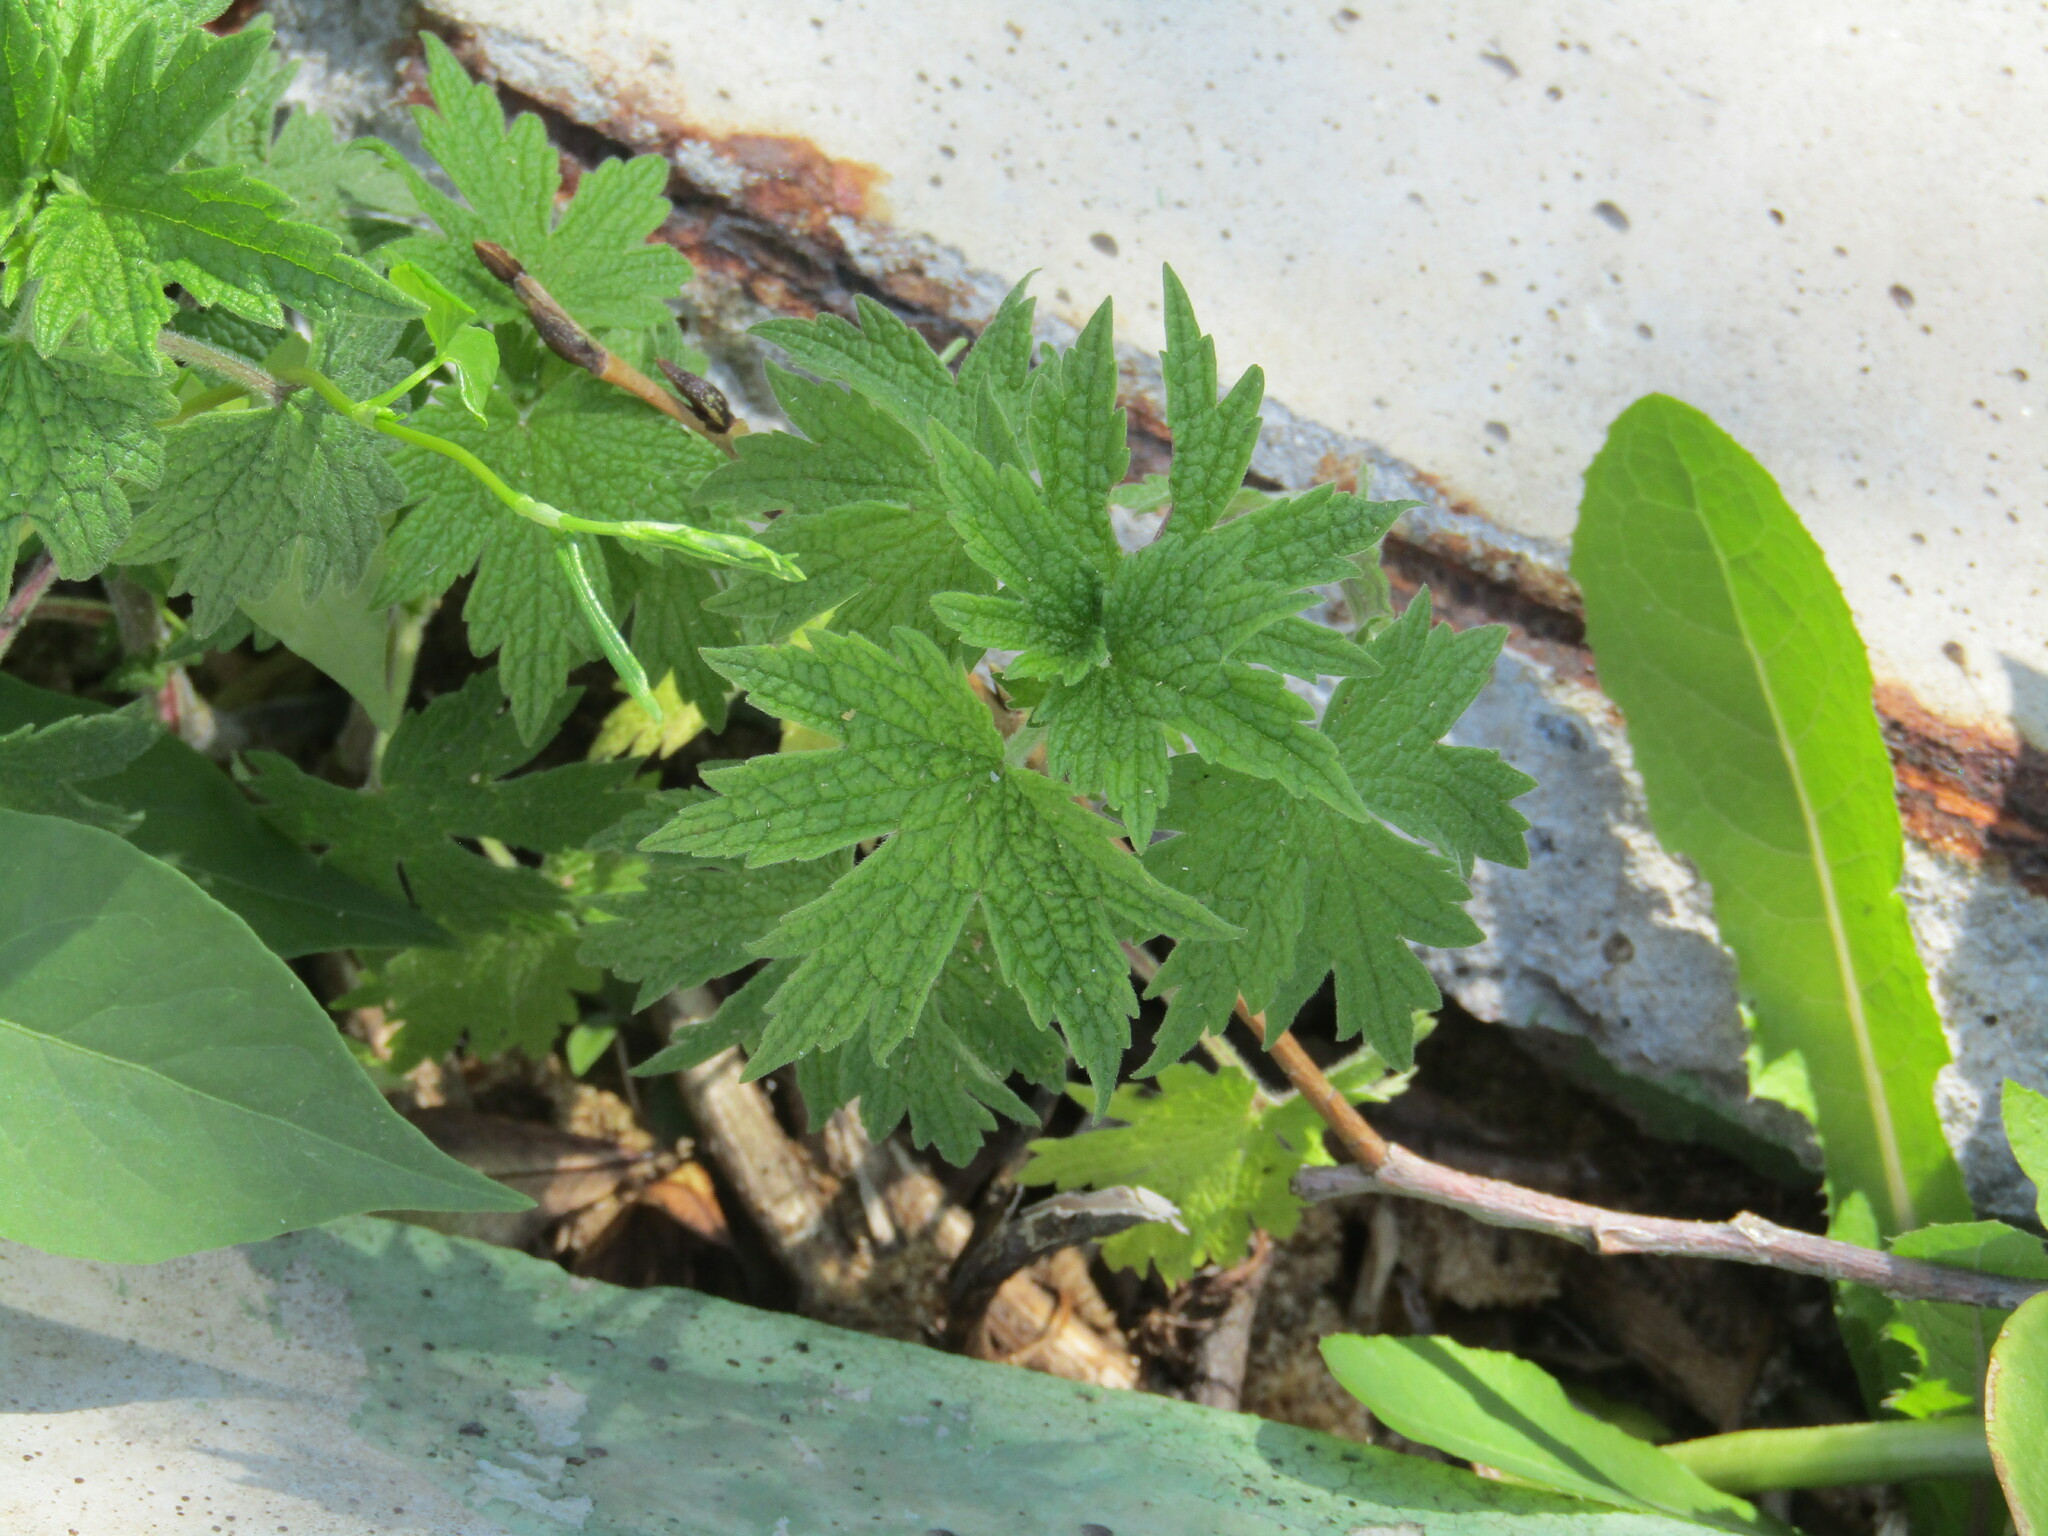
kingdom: Plantae
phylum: Tracheophyta
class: Magnoliopsida
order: Lamiales
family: Lamiaceae
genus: Leonurus
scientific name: Leonurus quinquelobatus
